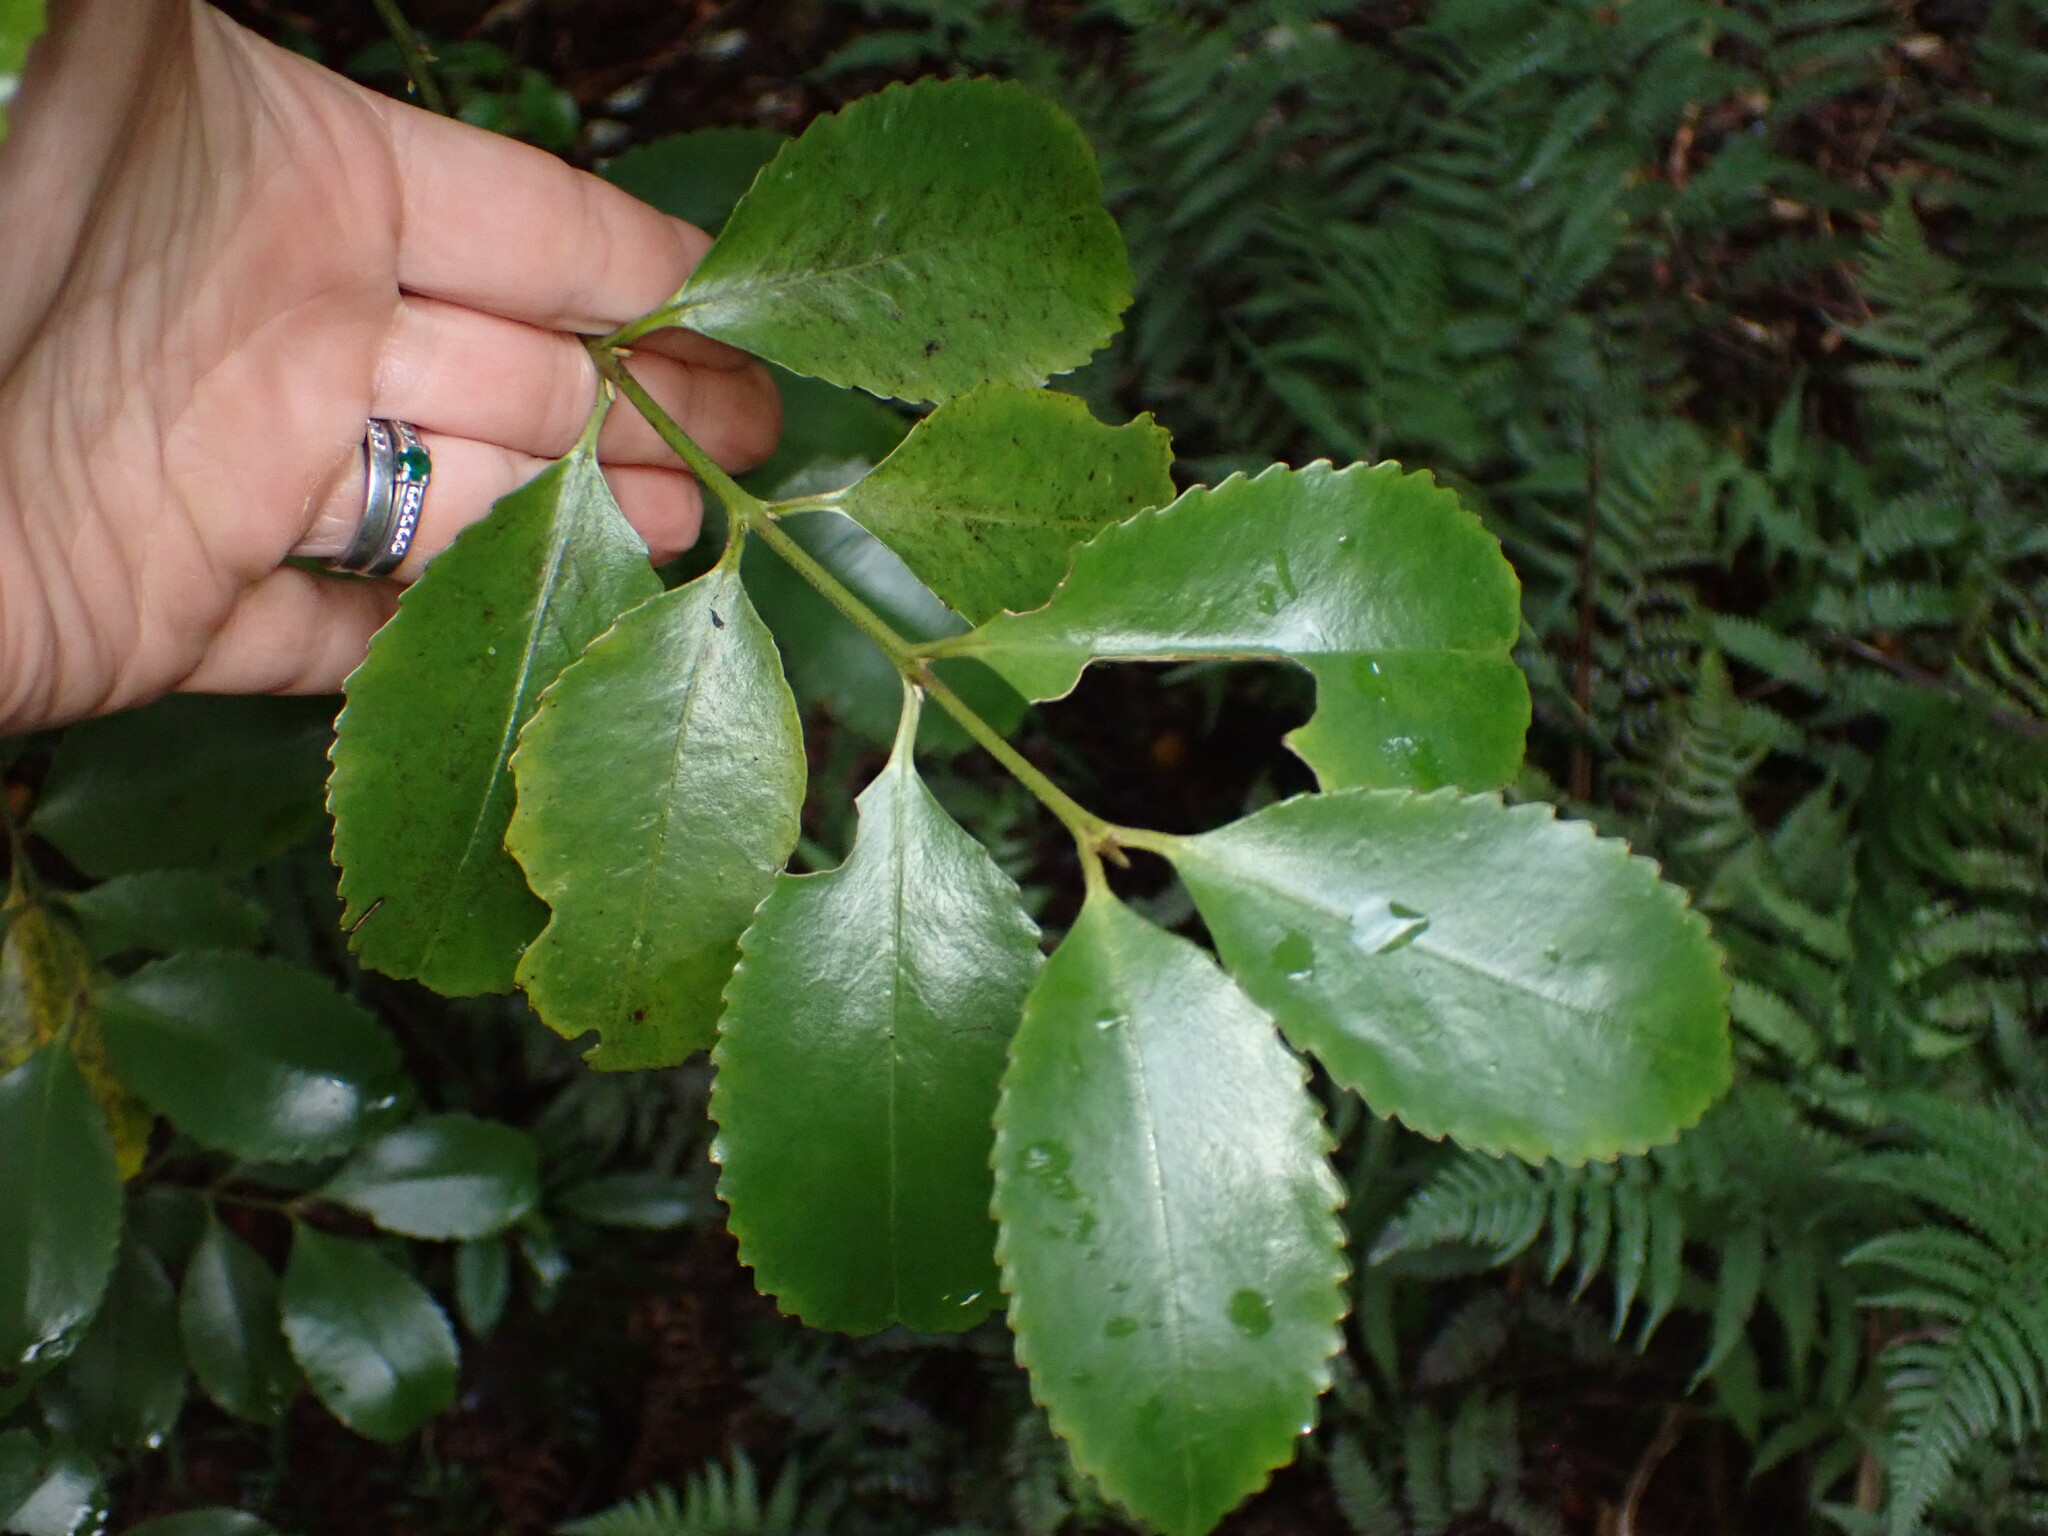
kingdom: Plantae
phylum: Tracheophyta
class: Magnoliopsida
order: Laurales
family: Atherospermataceae
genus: Laurelia
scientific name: Laurelia novae-zelandiae
